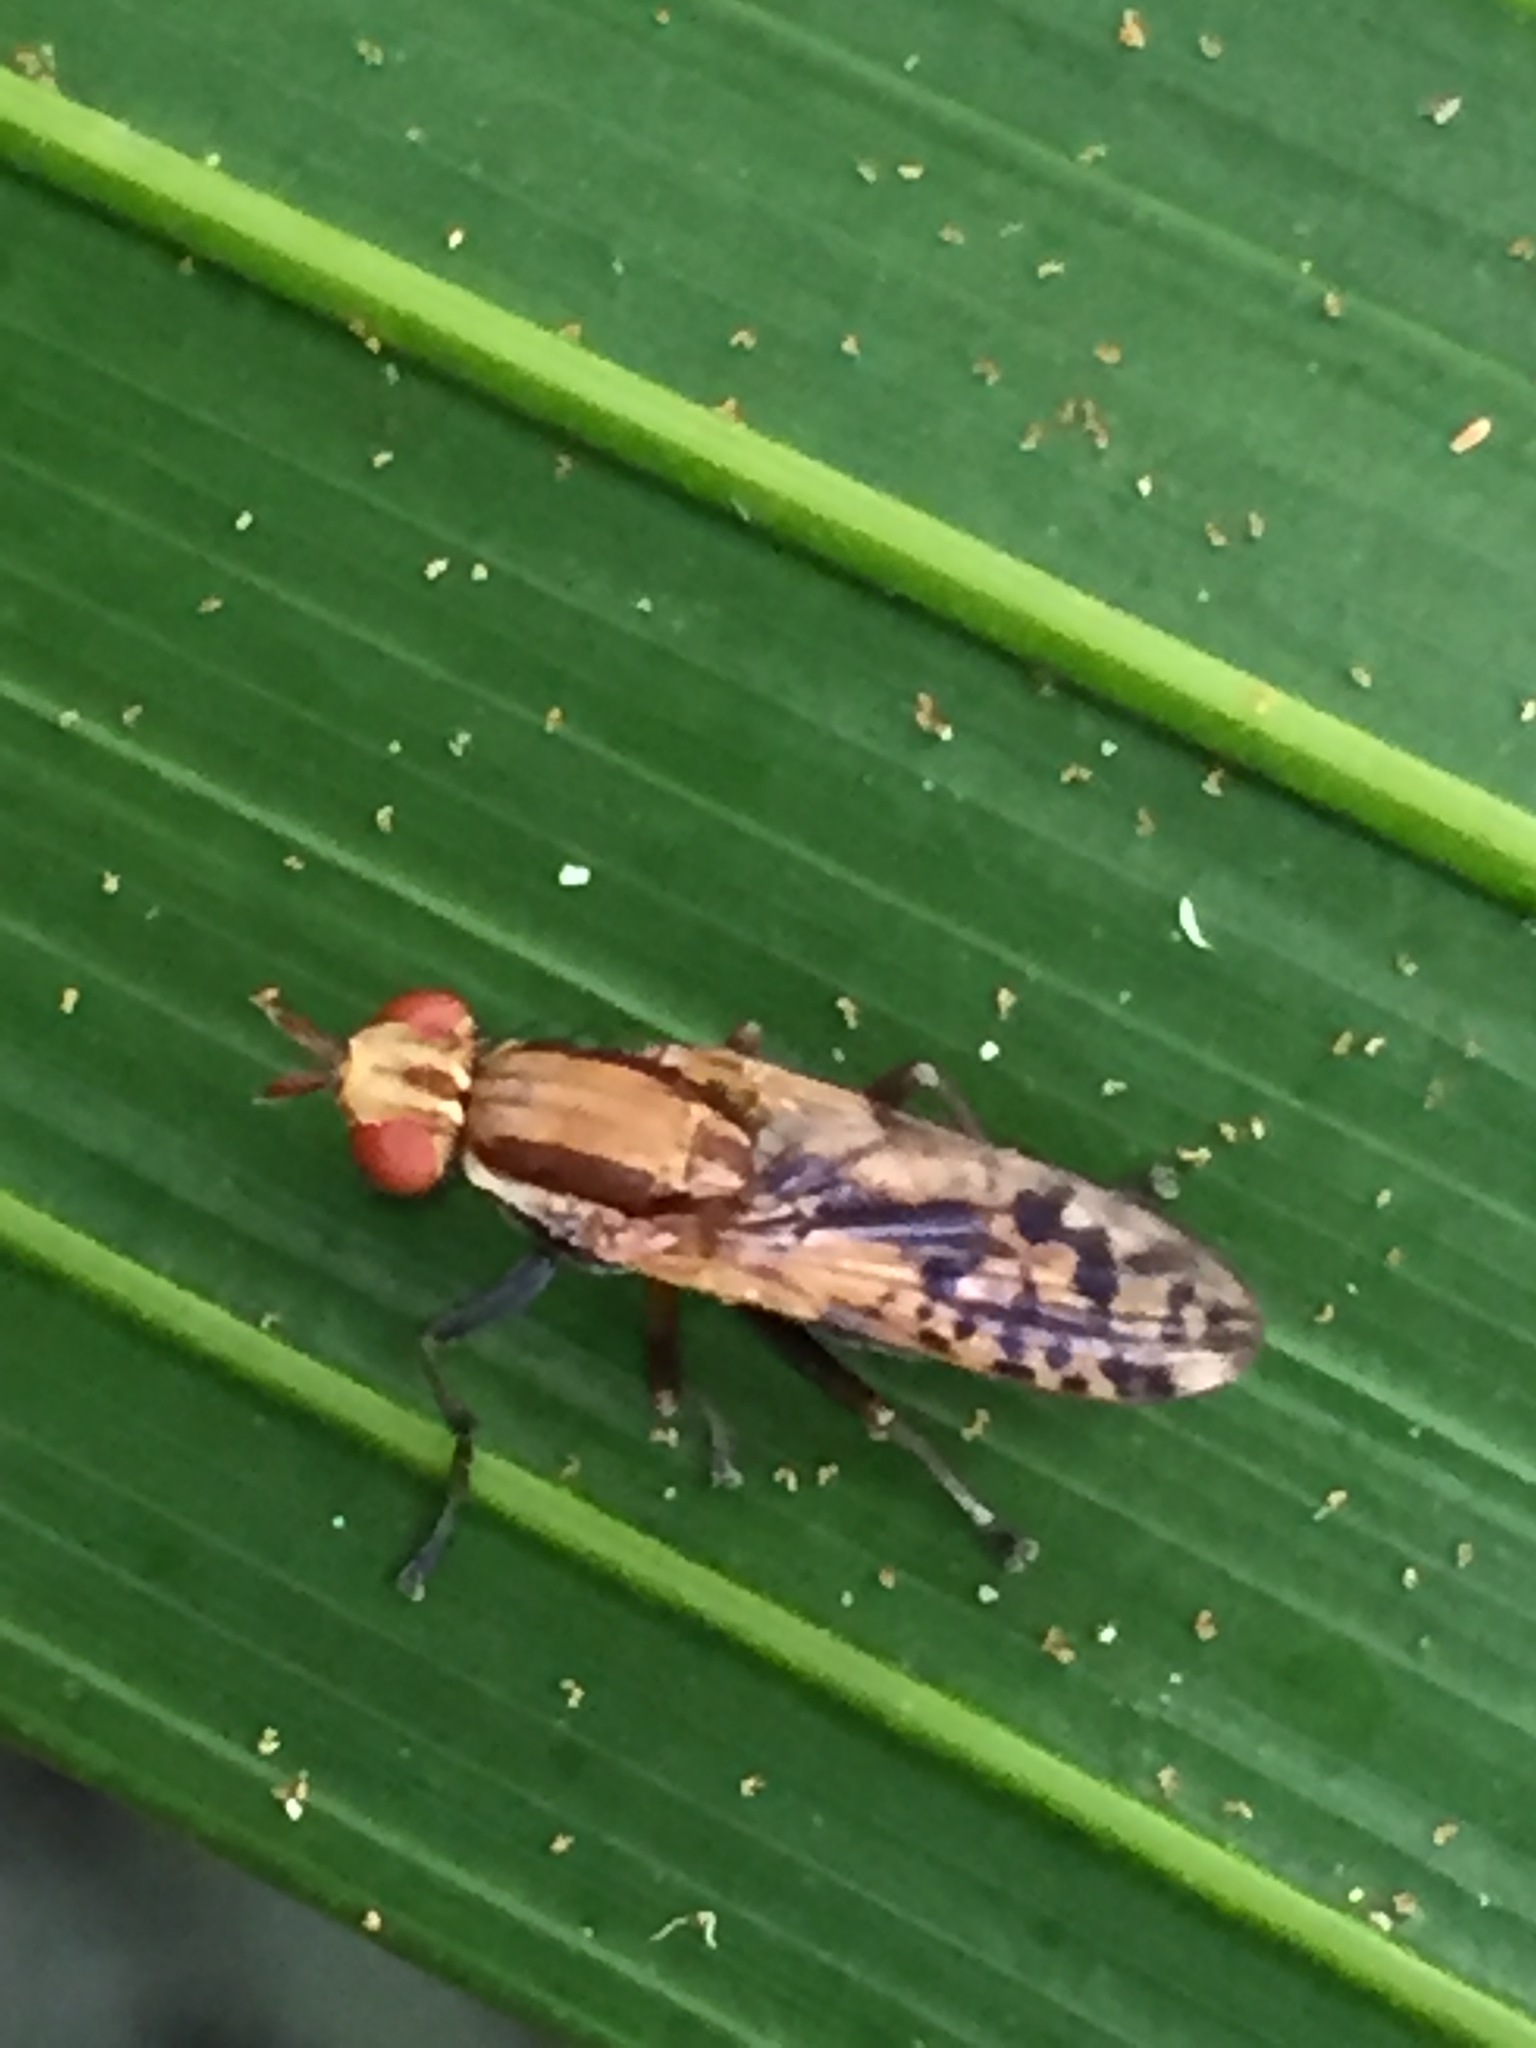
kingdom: Animalia
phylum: Arthropoda
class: Insecta
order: Diptera
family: Sciomyzidae
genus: Neolimnia
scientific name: Neolimnia tranquilla
